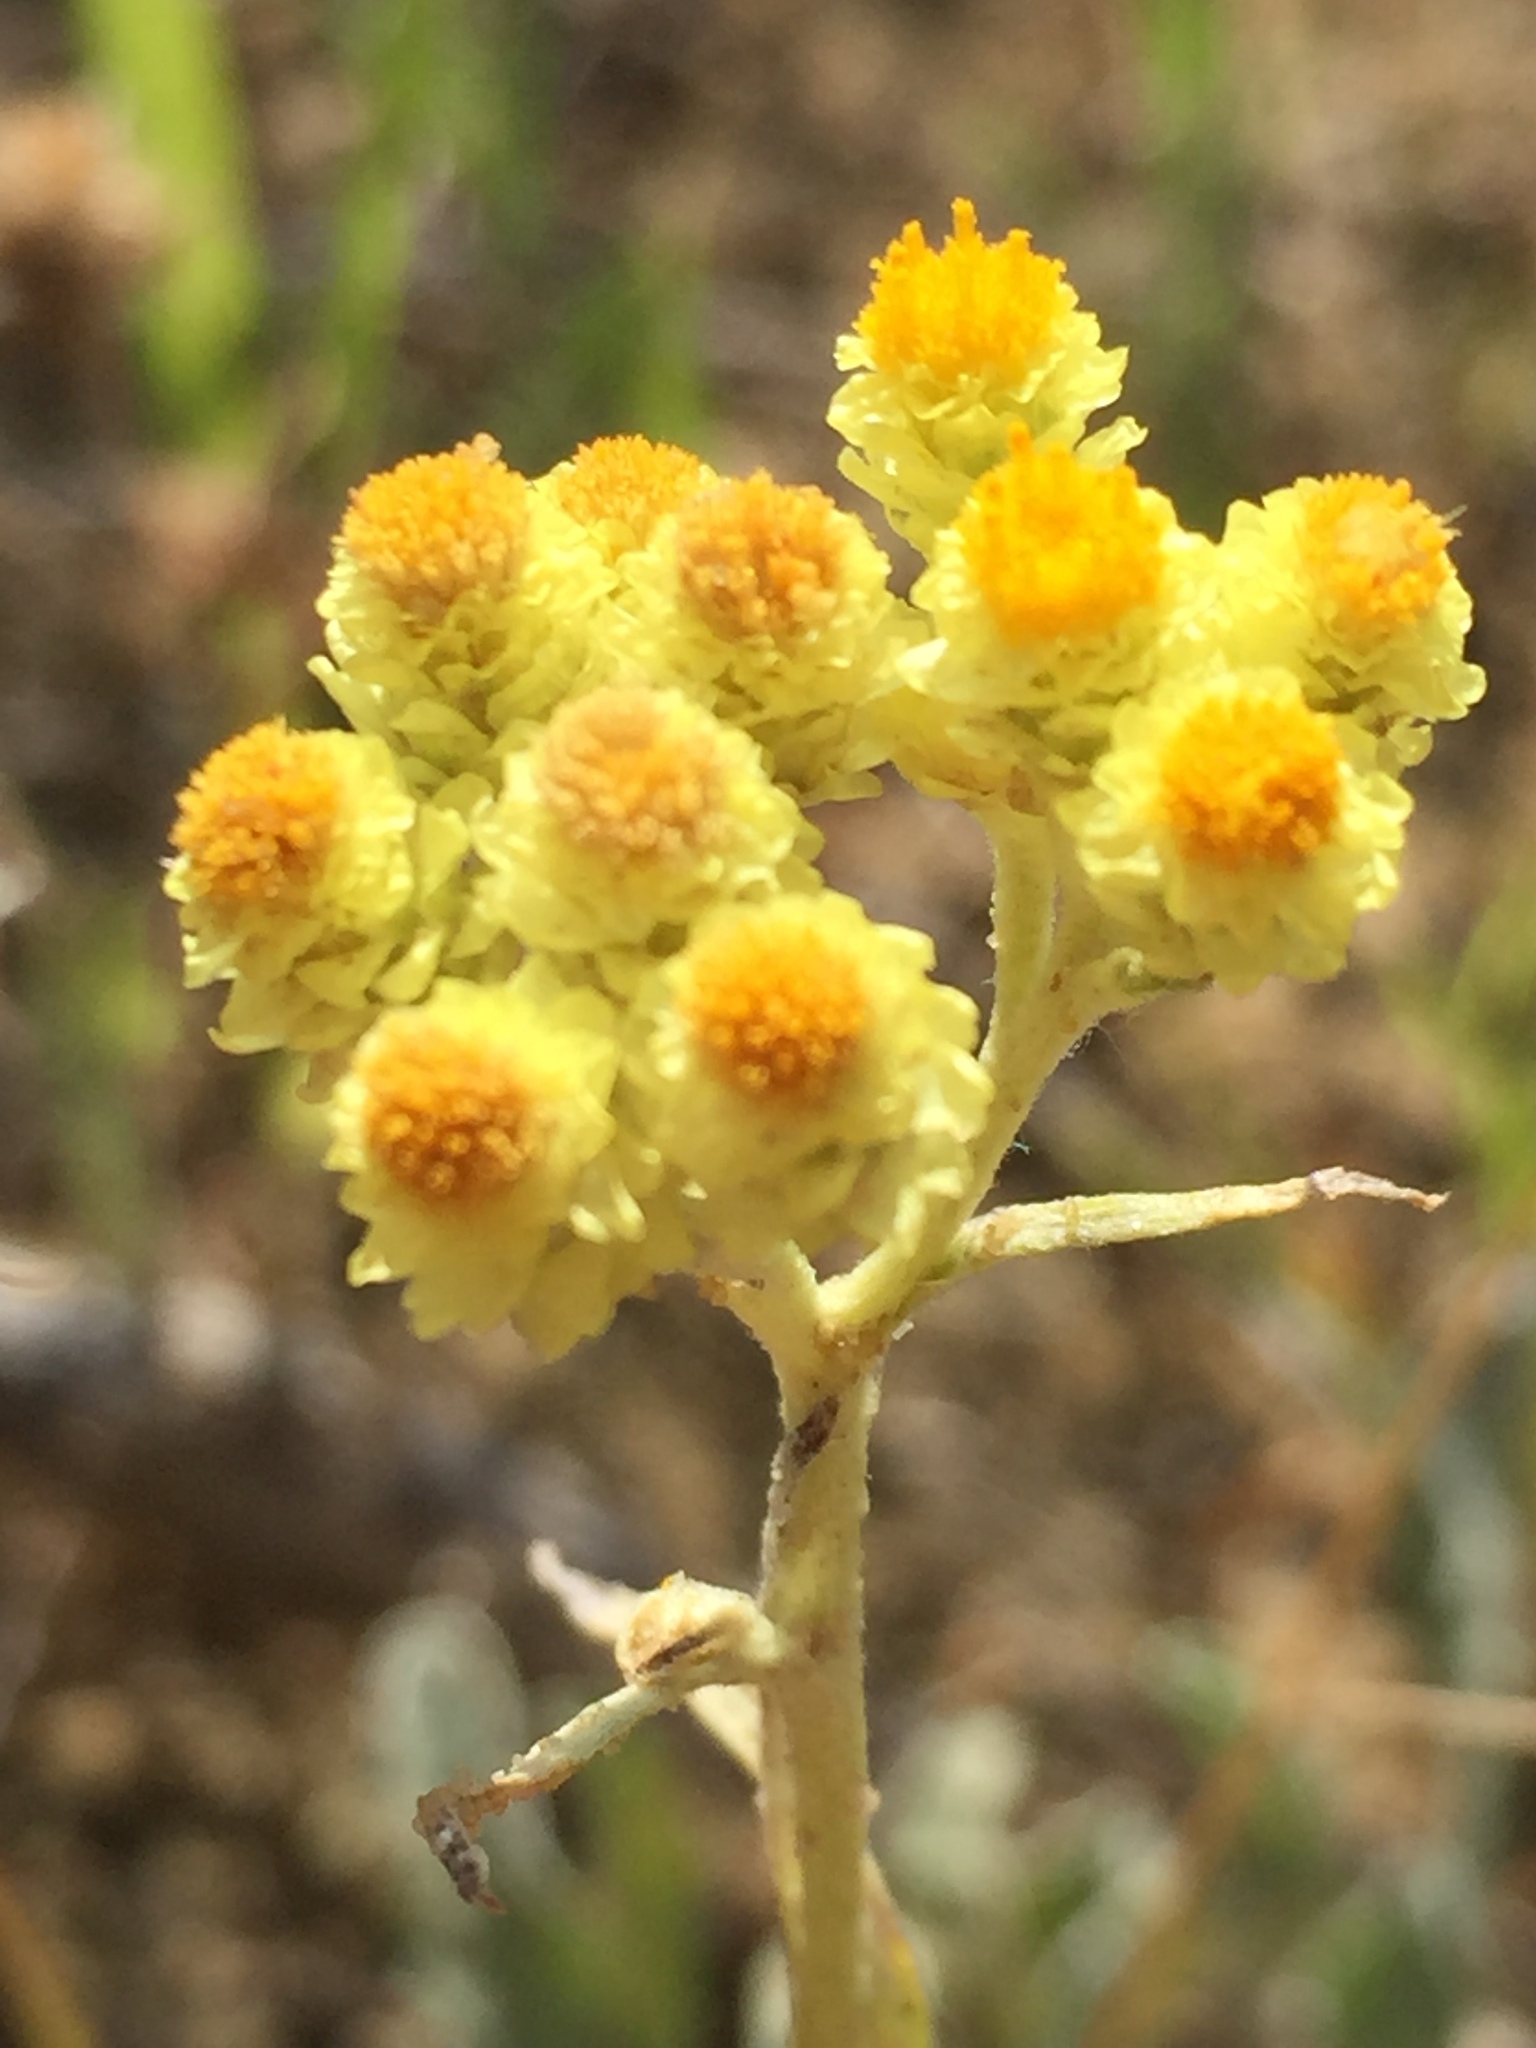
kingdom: Plantae
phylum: Tracheophyta
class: Magnoliopsida
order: Asterales
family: Asteraceae
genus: Helichrysum
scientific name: Helichrysum arenarium
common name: Strawflower
